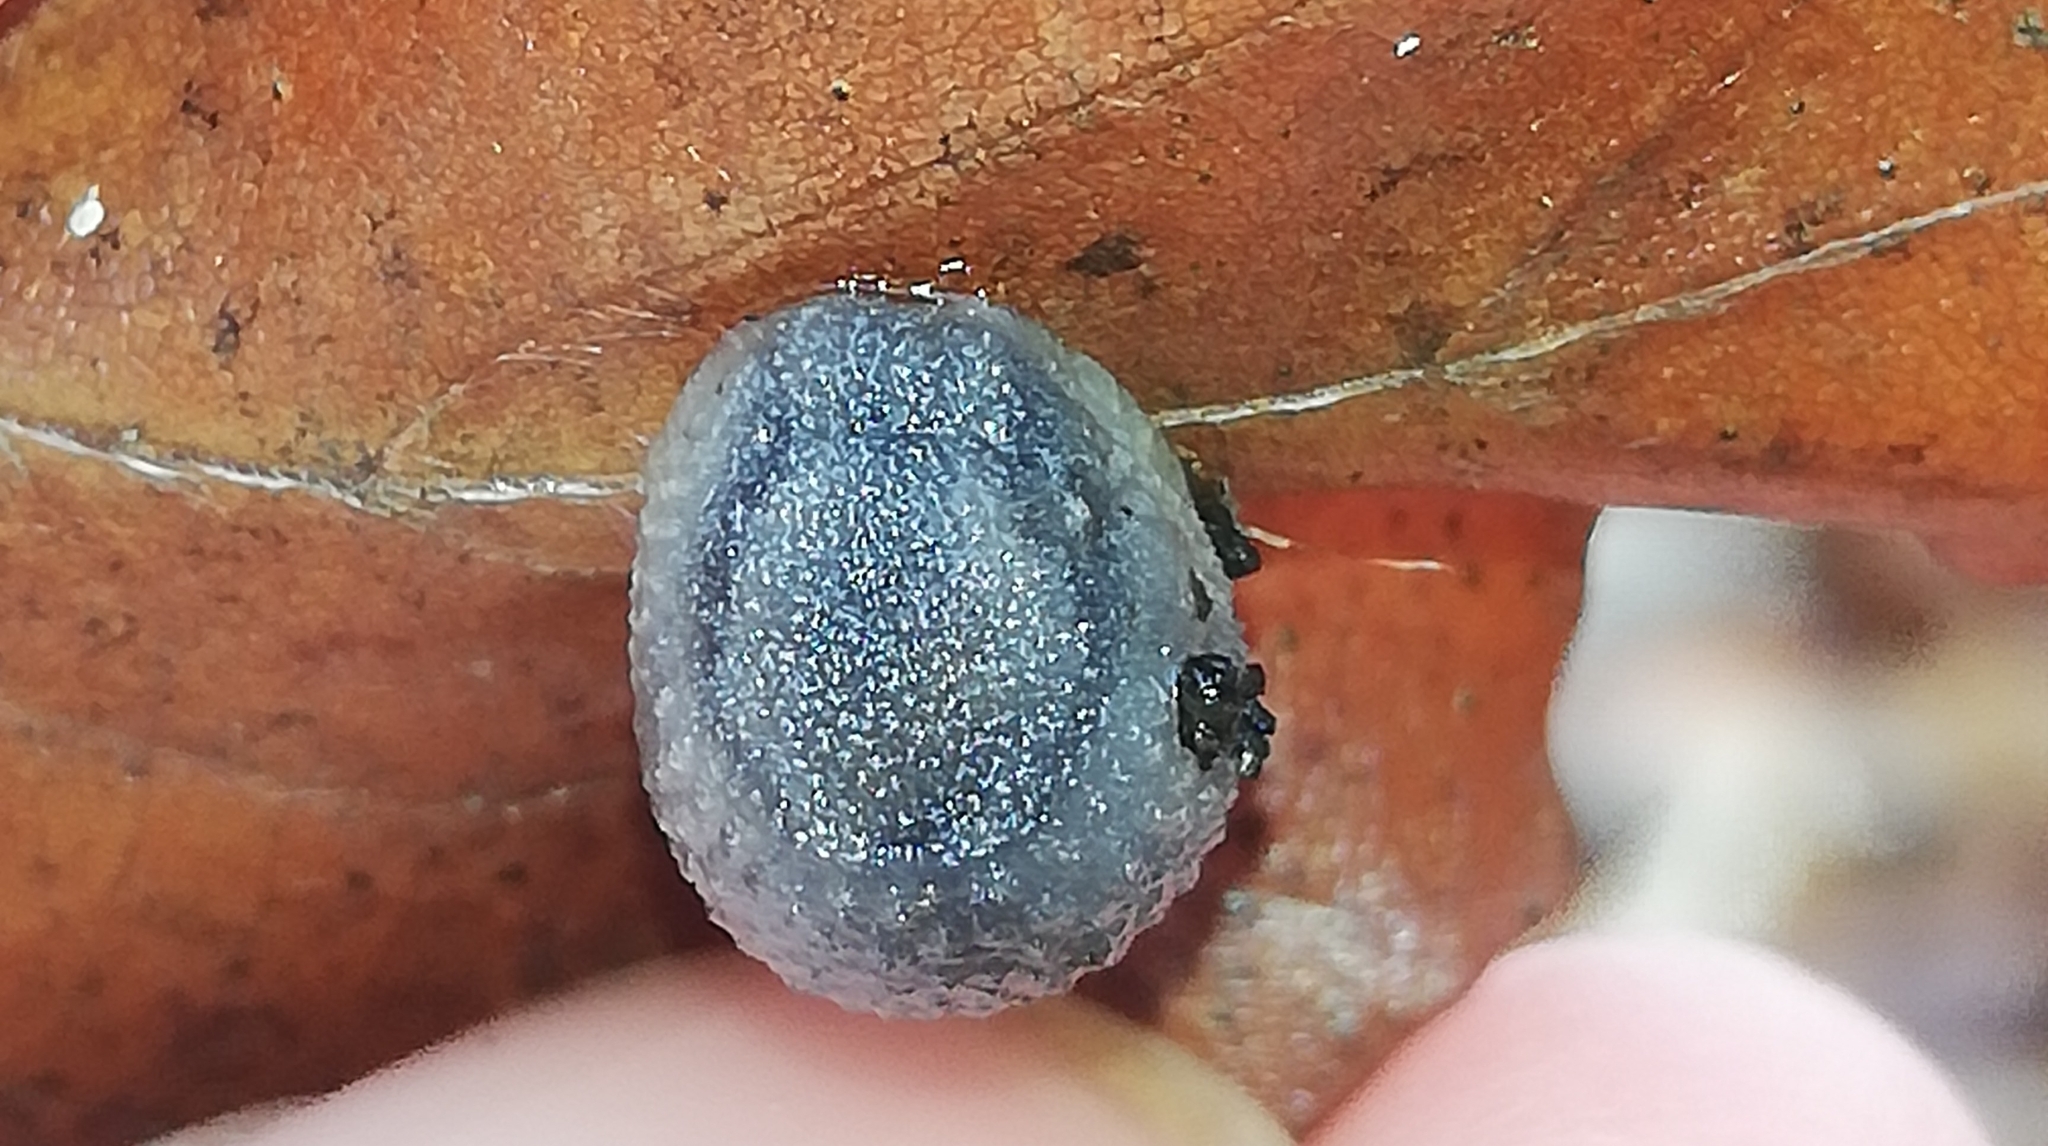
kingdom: Animalia
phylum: Mollusca
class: Gastropoda
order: Stylommatophora
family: Arionidae
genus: Arion
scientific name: Arion intermedius
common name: Hedgehog slug
